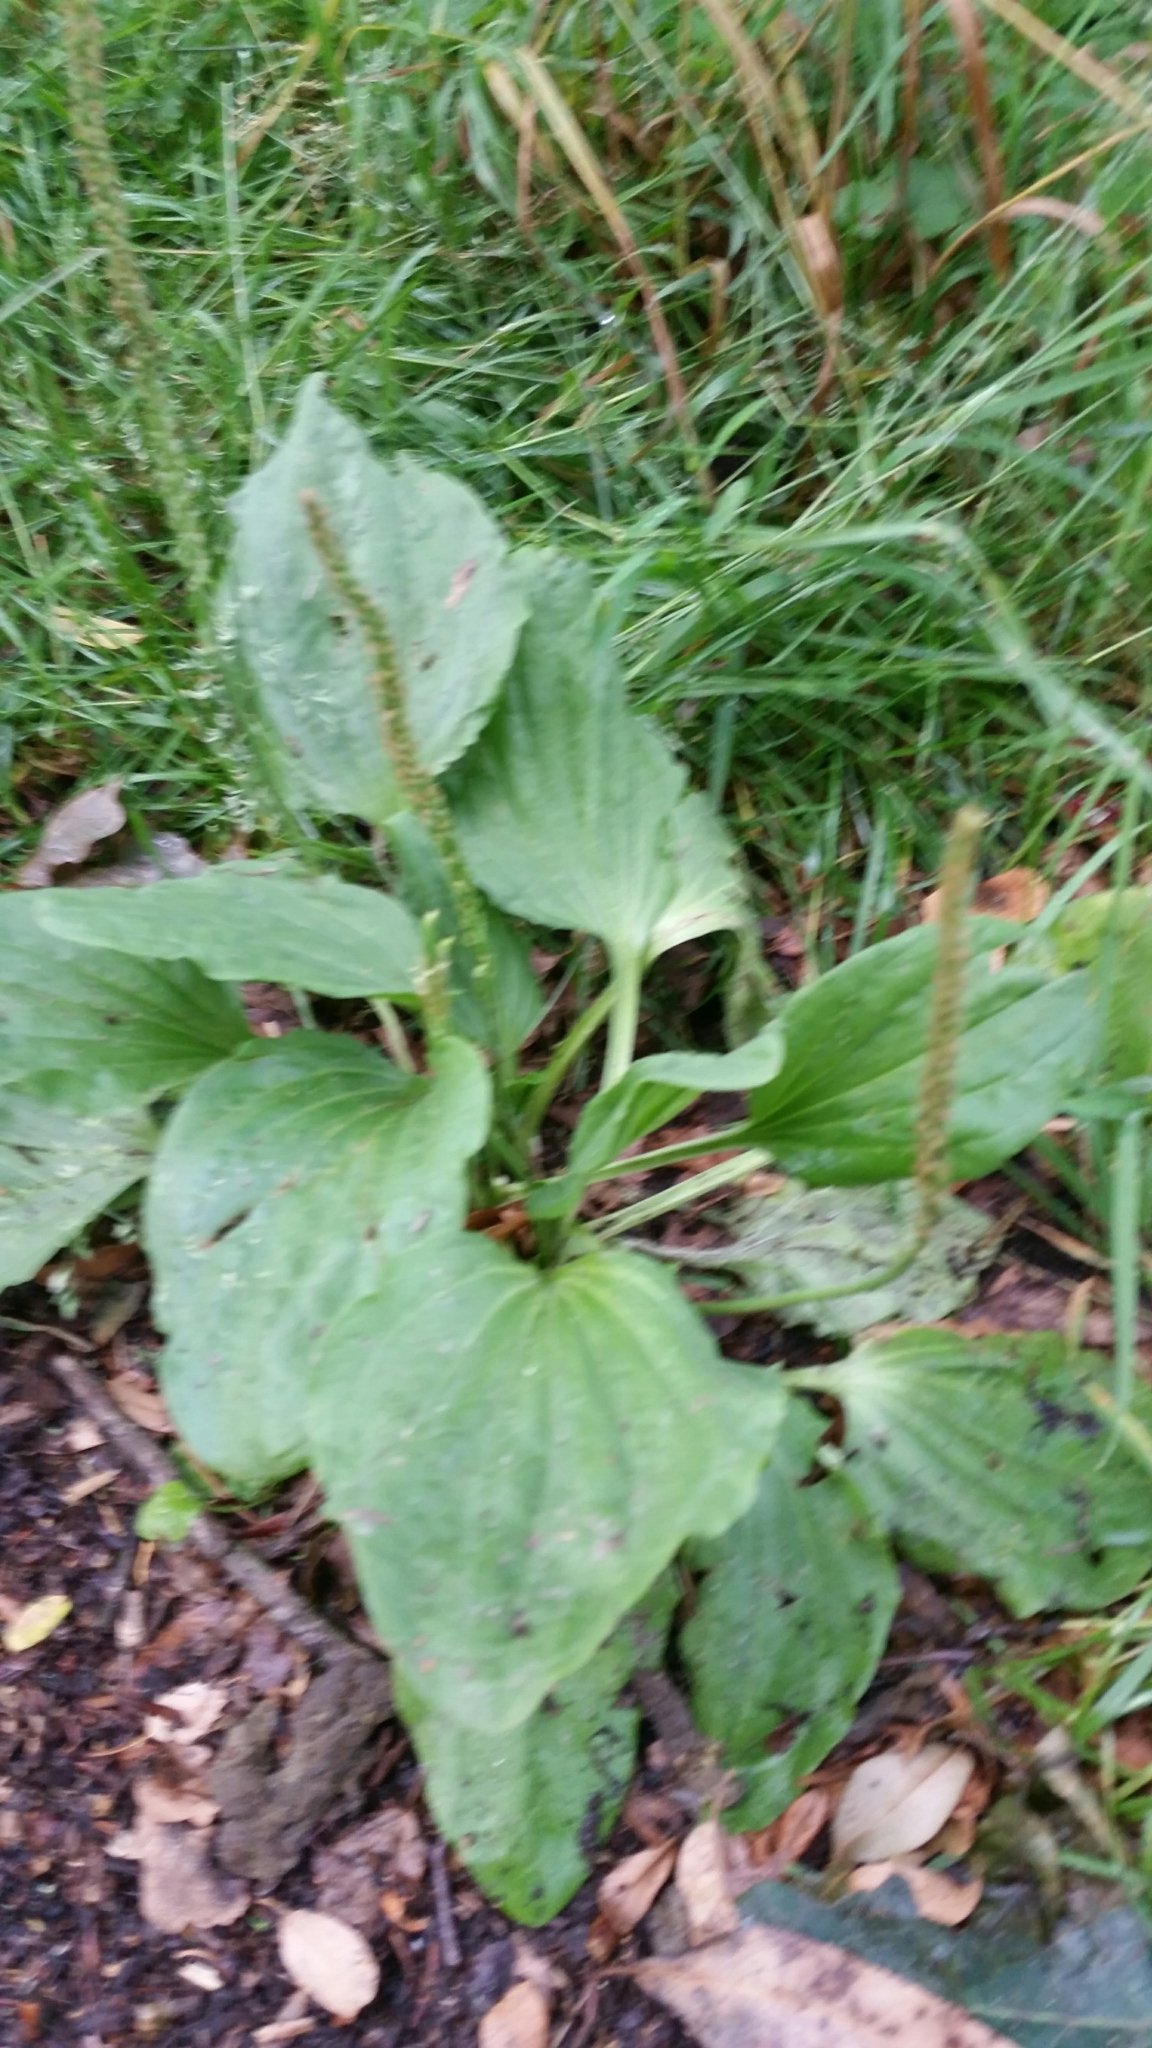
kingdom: Plantae
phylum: Tracheophyta
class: Magnoliopsida
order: Lamiales
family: Plantaginaceae
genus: Plantago
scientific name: Plantago major
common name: Common plantain
